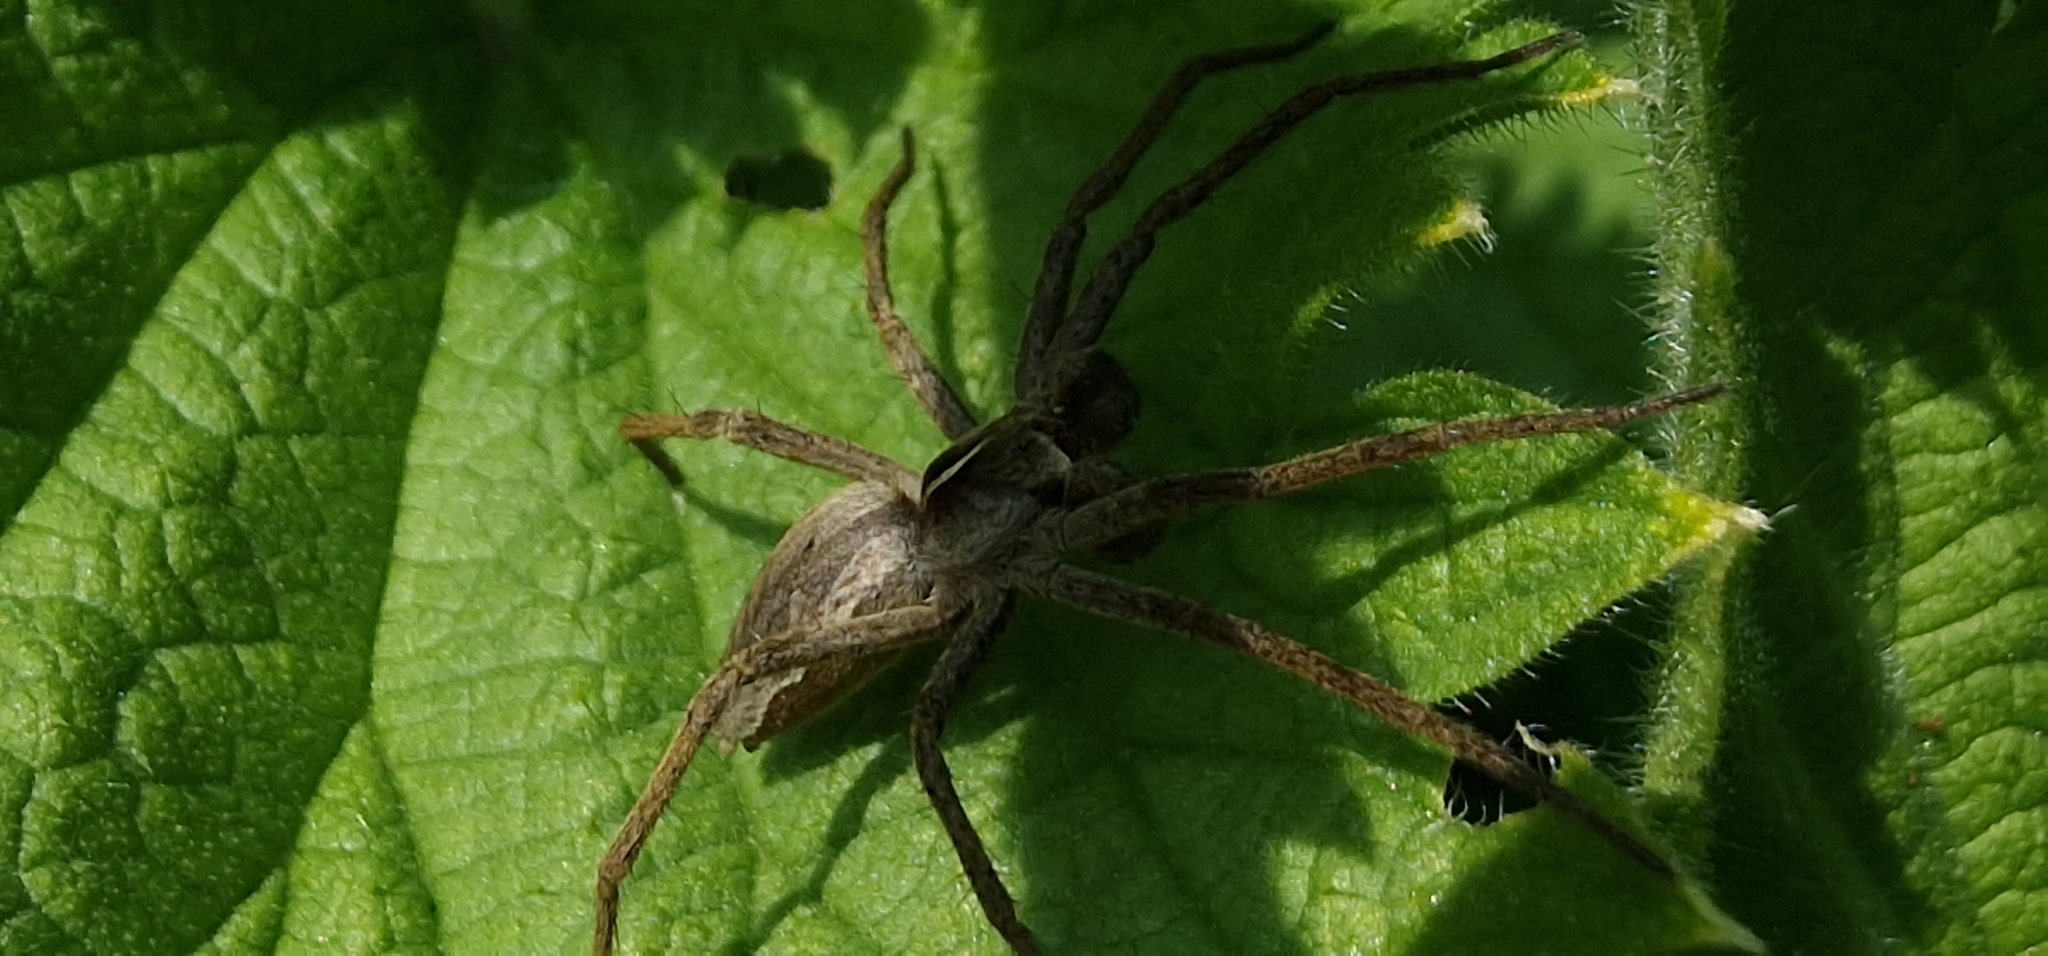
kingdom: Animalia
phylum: Arthropoda
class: Arachnida
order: Araneae
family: Pisauridae
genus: Pisaura
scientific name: Pisaura mirabilis
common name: Tent spider
